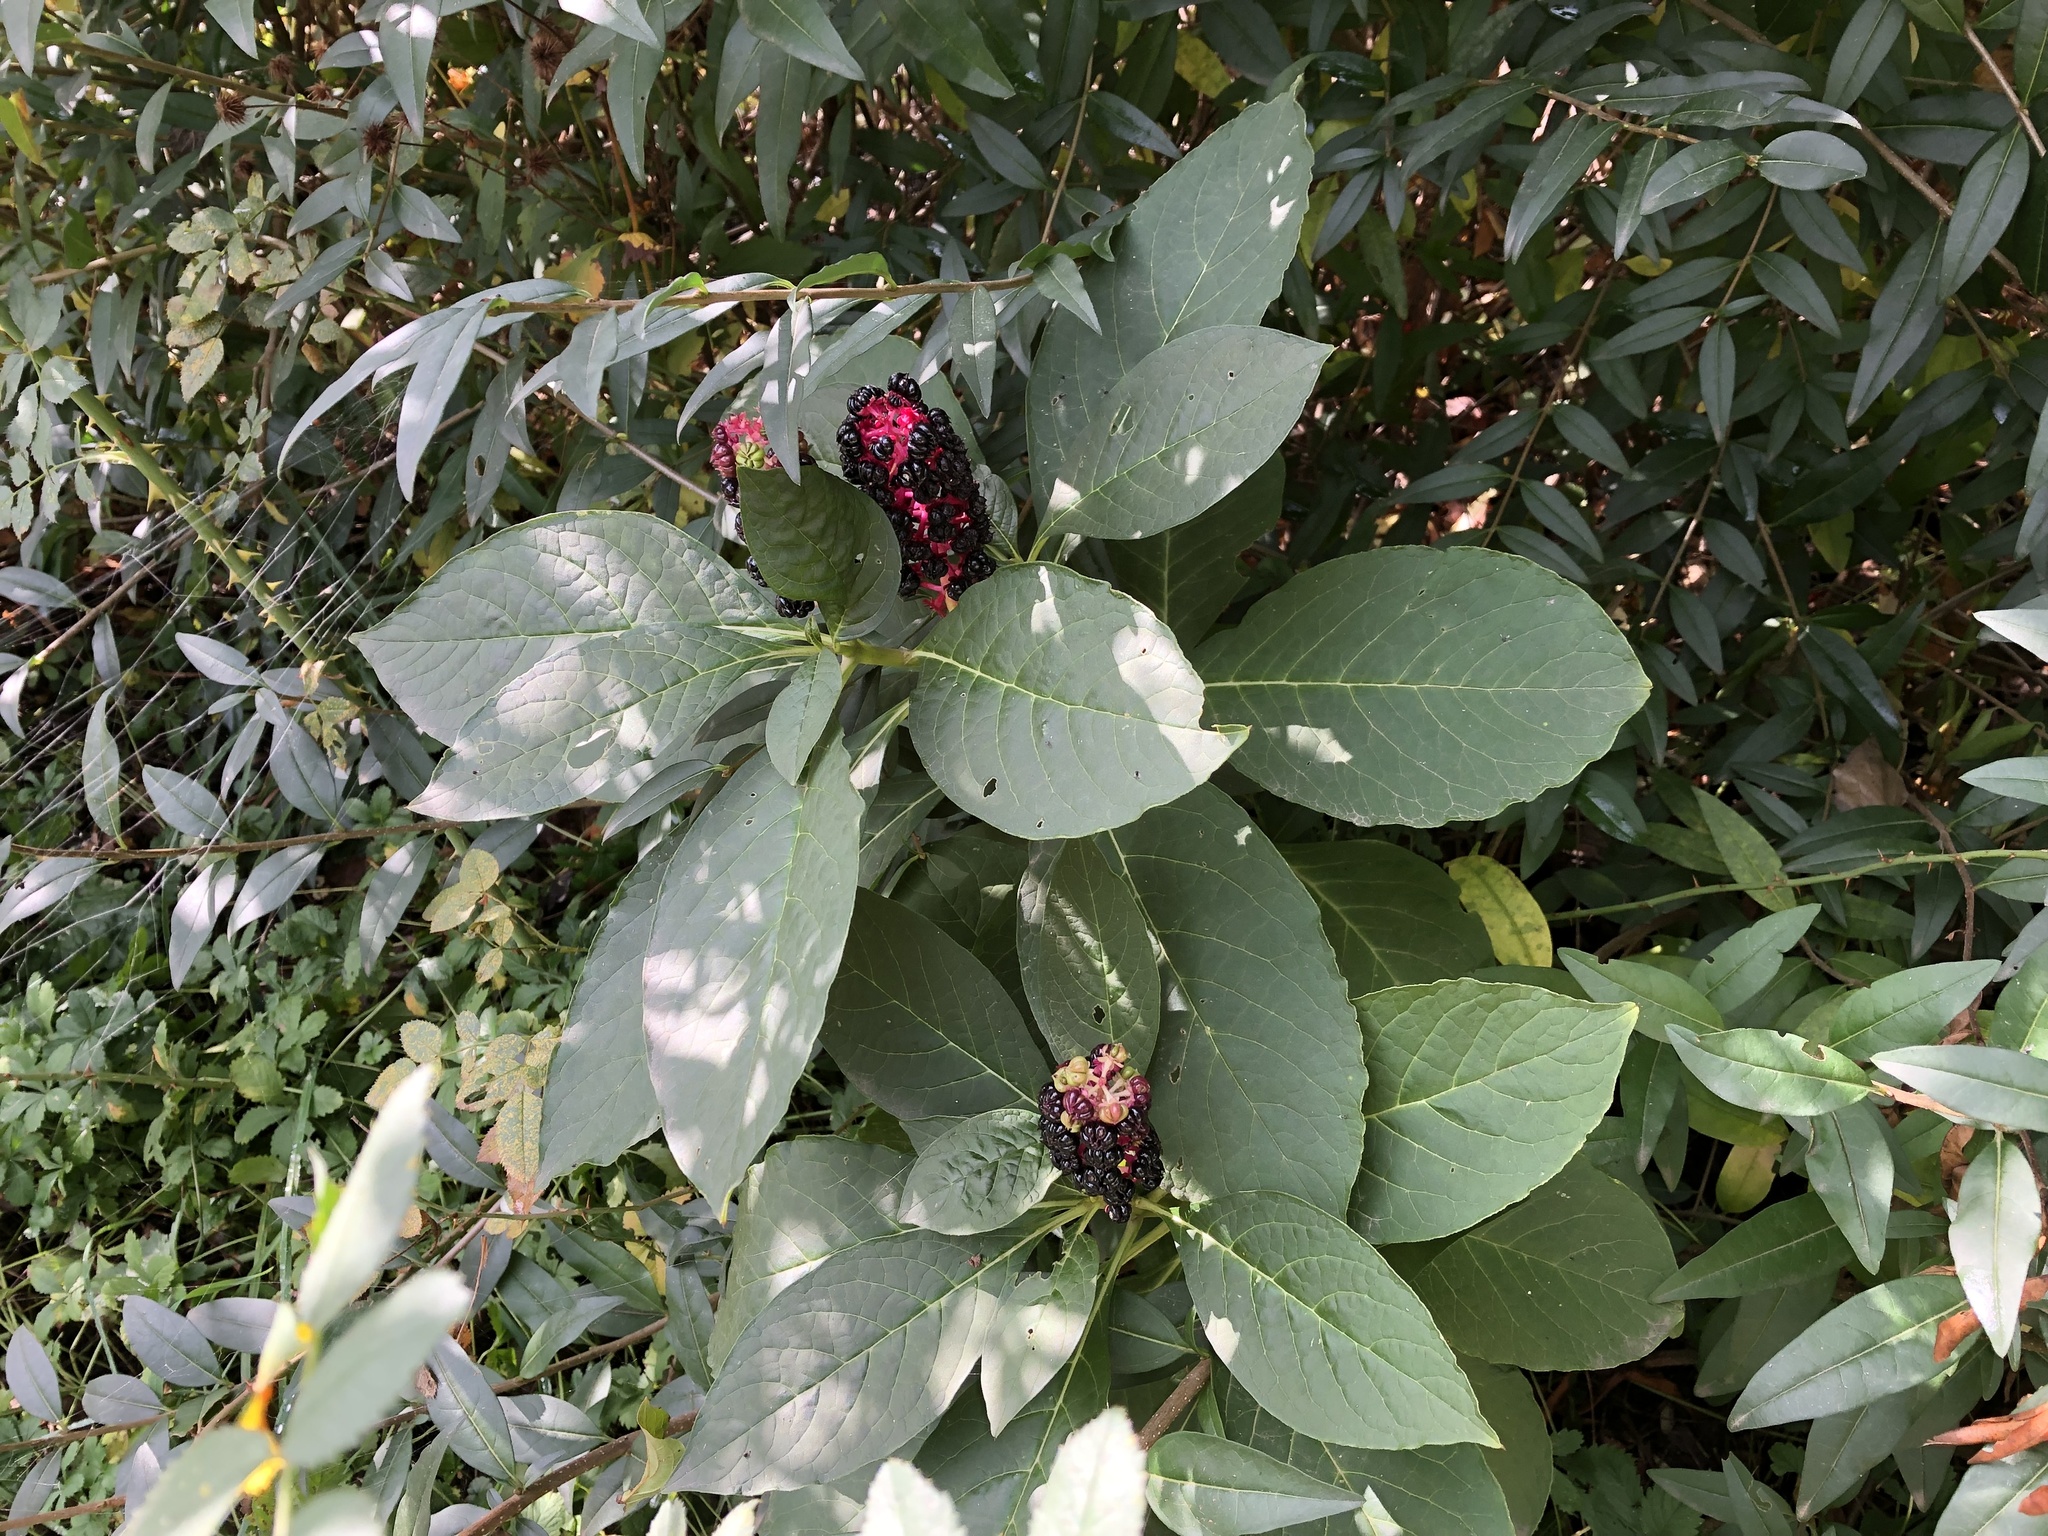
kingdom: Plantae
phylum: Tracheophyta
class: Magnoliopsida
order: Caryophyllales
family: Phytolaccaceae
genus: Phytolacca
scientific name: Phytolacca acinosa
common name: Indian pokeweed
